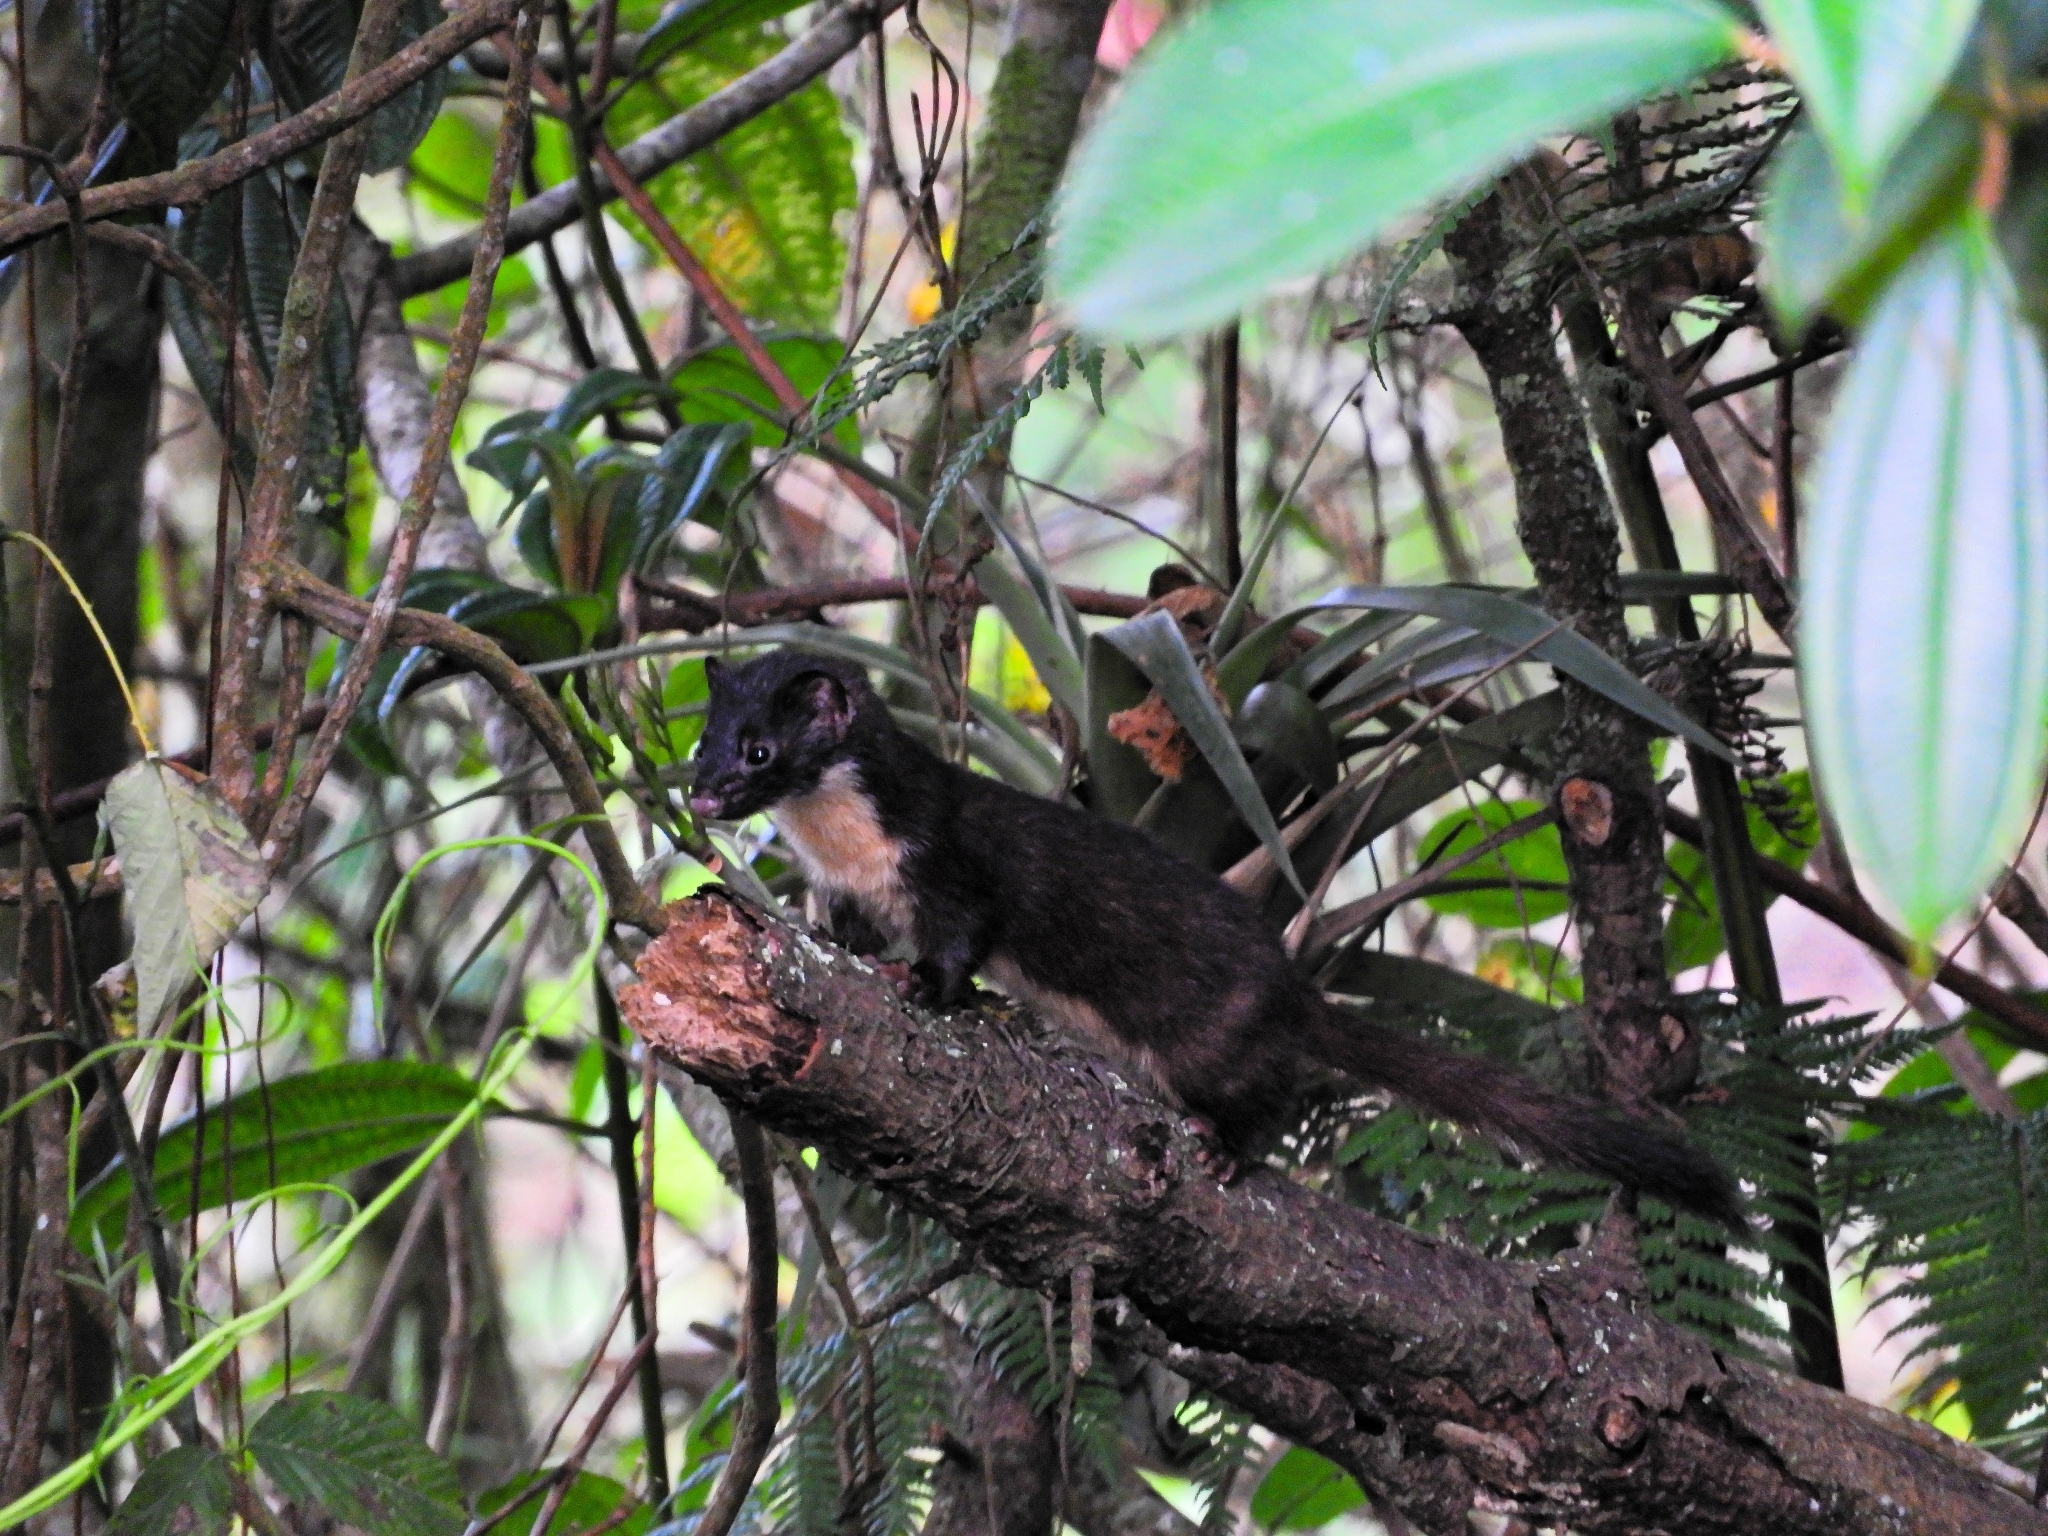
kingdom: Animalia
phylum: Chordata
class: Mammalia
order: Carnivora
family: Mustelidae
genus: Mustela
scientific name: Mustela
